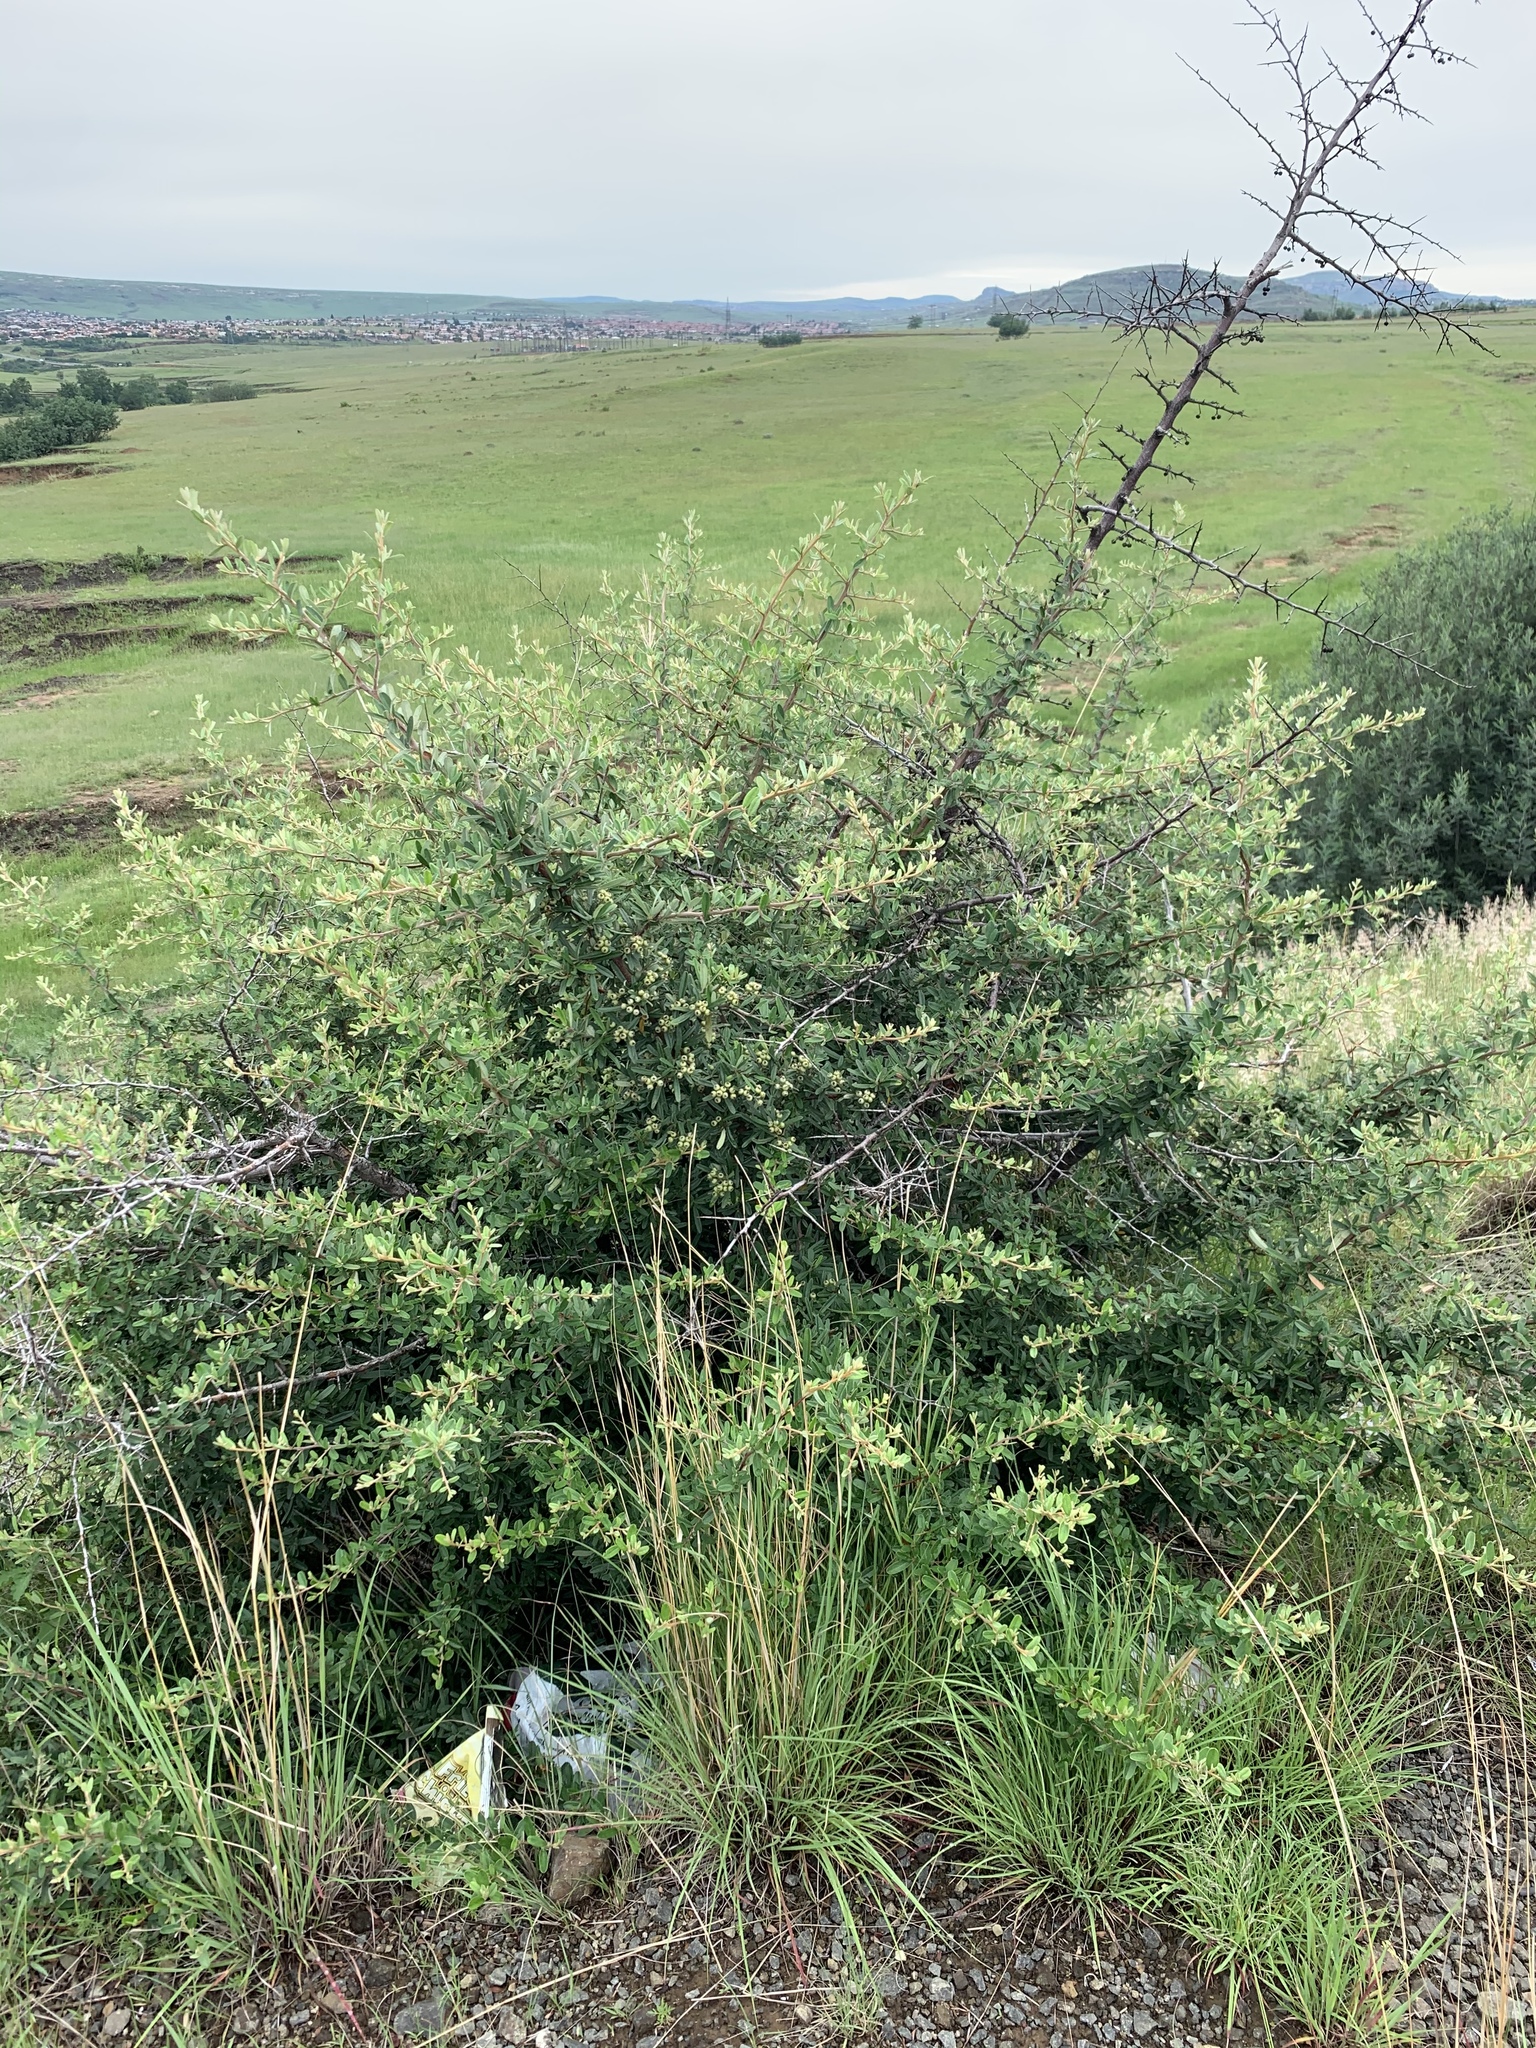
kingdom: Plantae
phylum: Tracheophyta
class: Magnoliopsida
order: Rosales
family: Rosaceae
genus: Pyracantha
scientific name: Pyracantha angustifolia
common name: Narrowleaf firethorn
